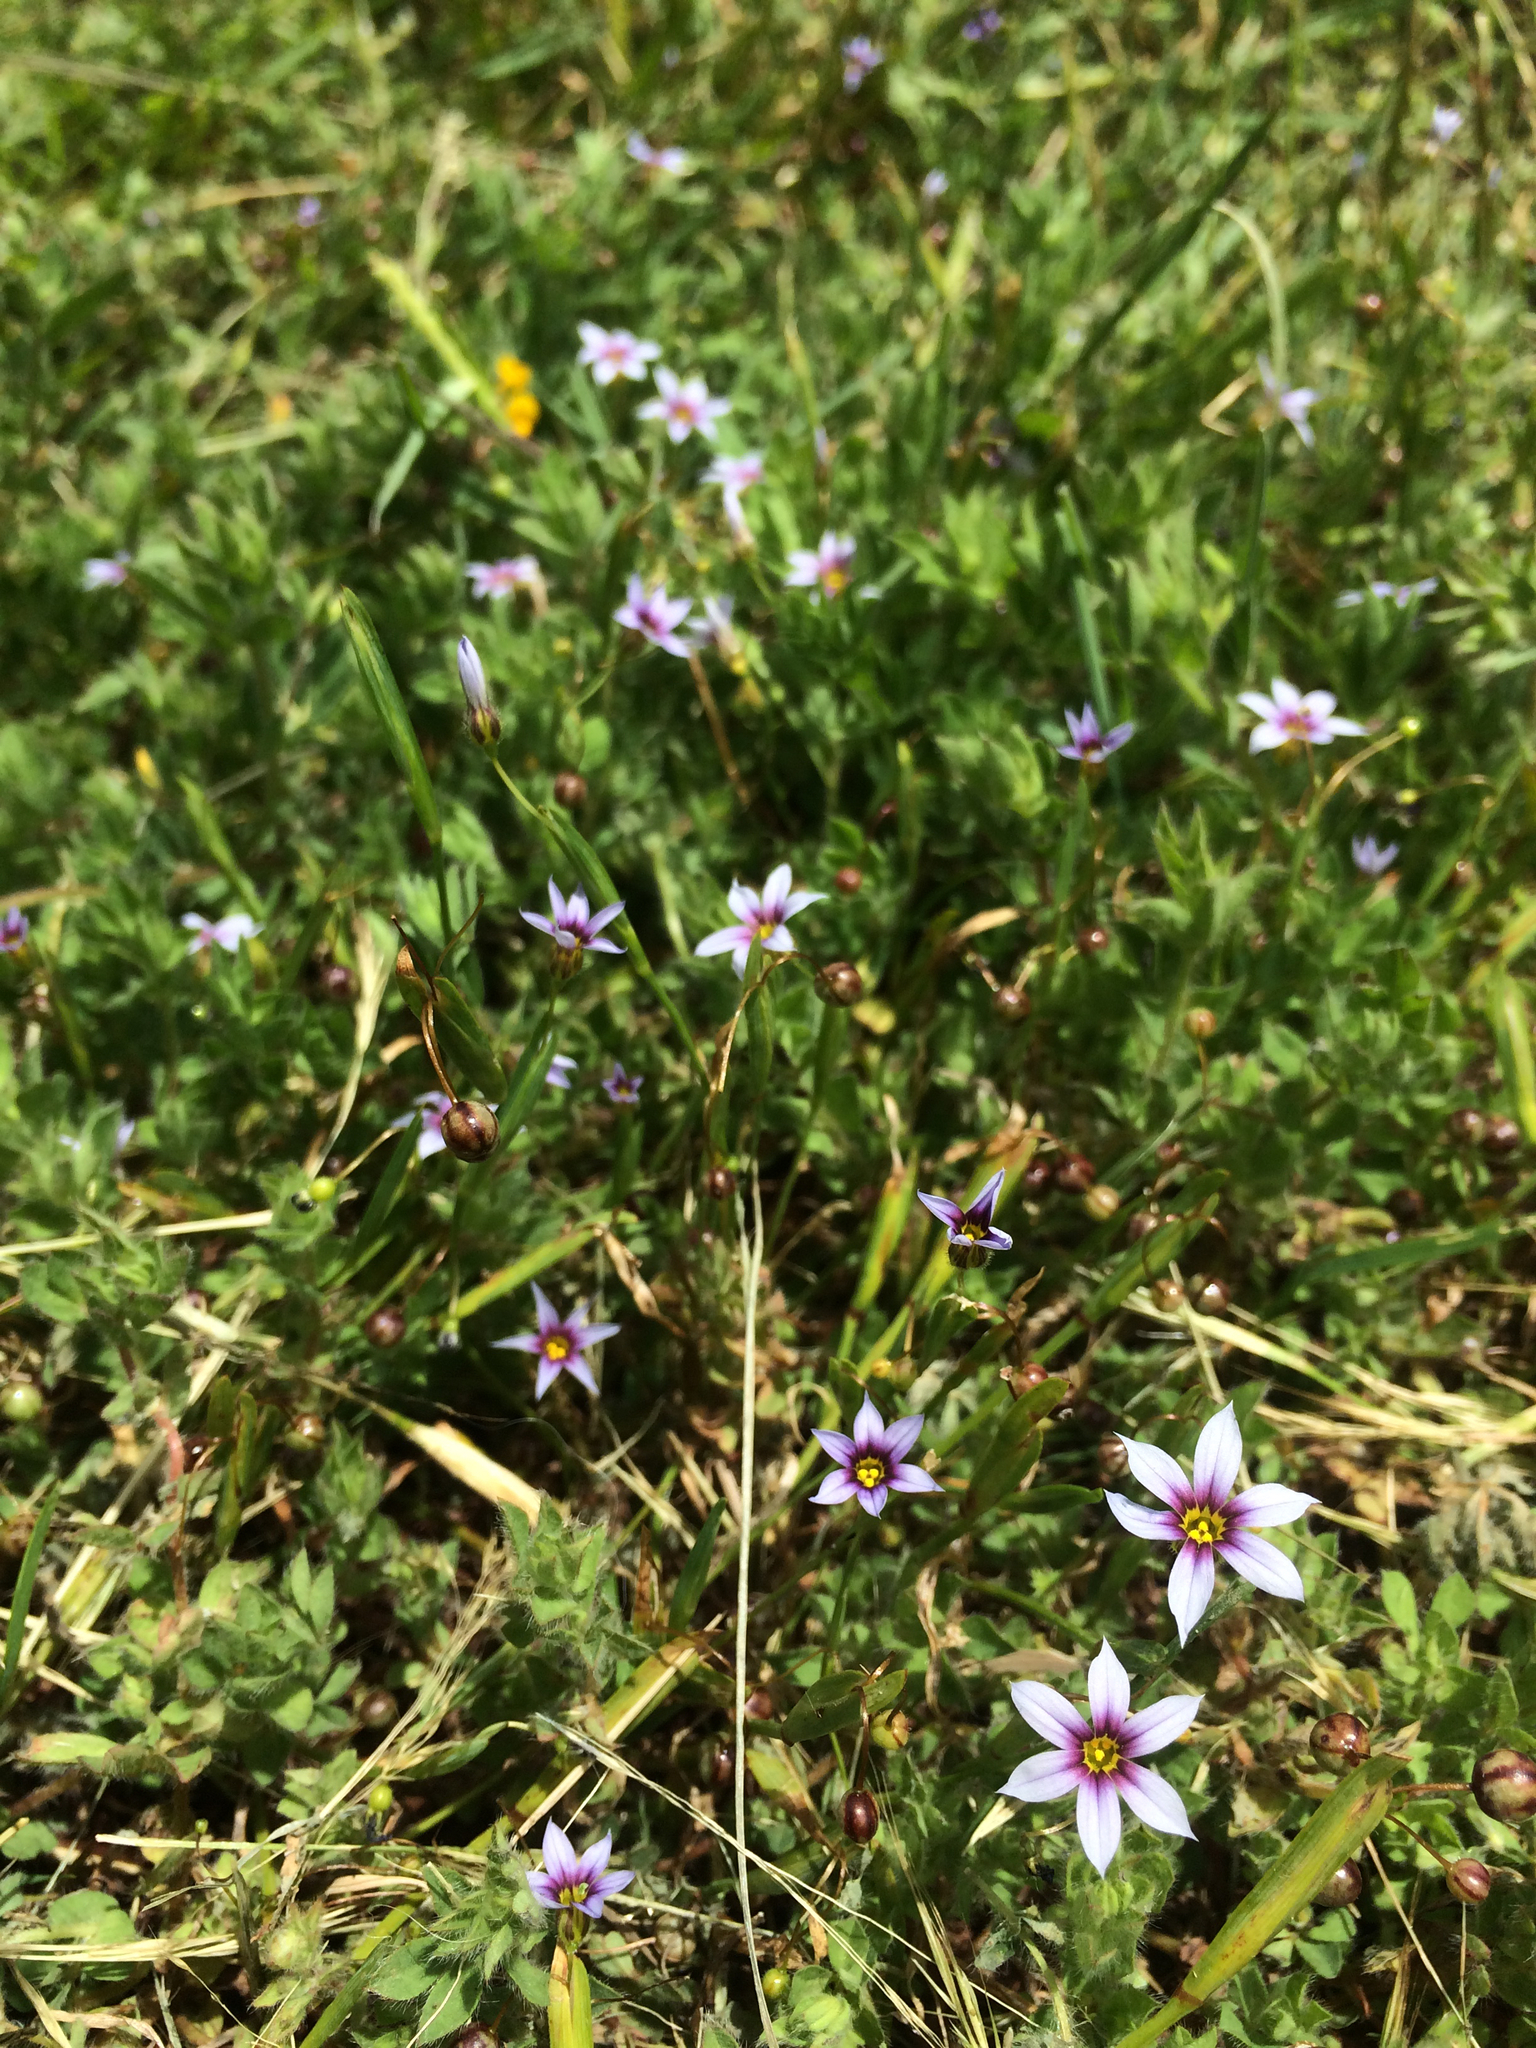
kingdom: Plantae
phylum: Tracheophyta
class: Liliopsida
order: Asparagales
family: Iridaceae
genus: Sisyrinchium
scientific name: Sisyrinchium micranthum
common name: Bermuda pigroot
